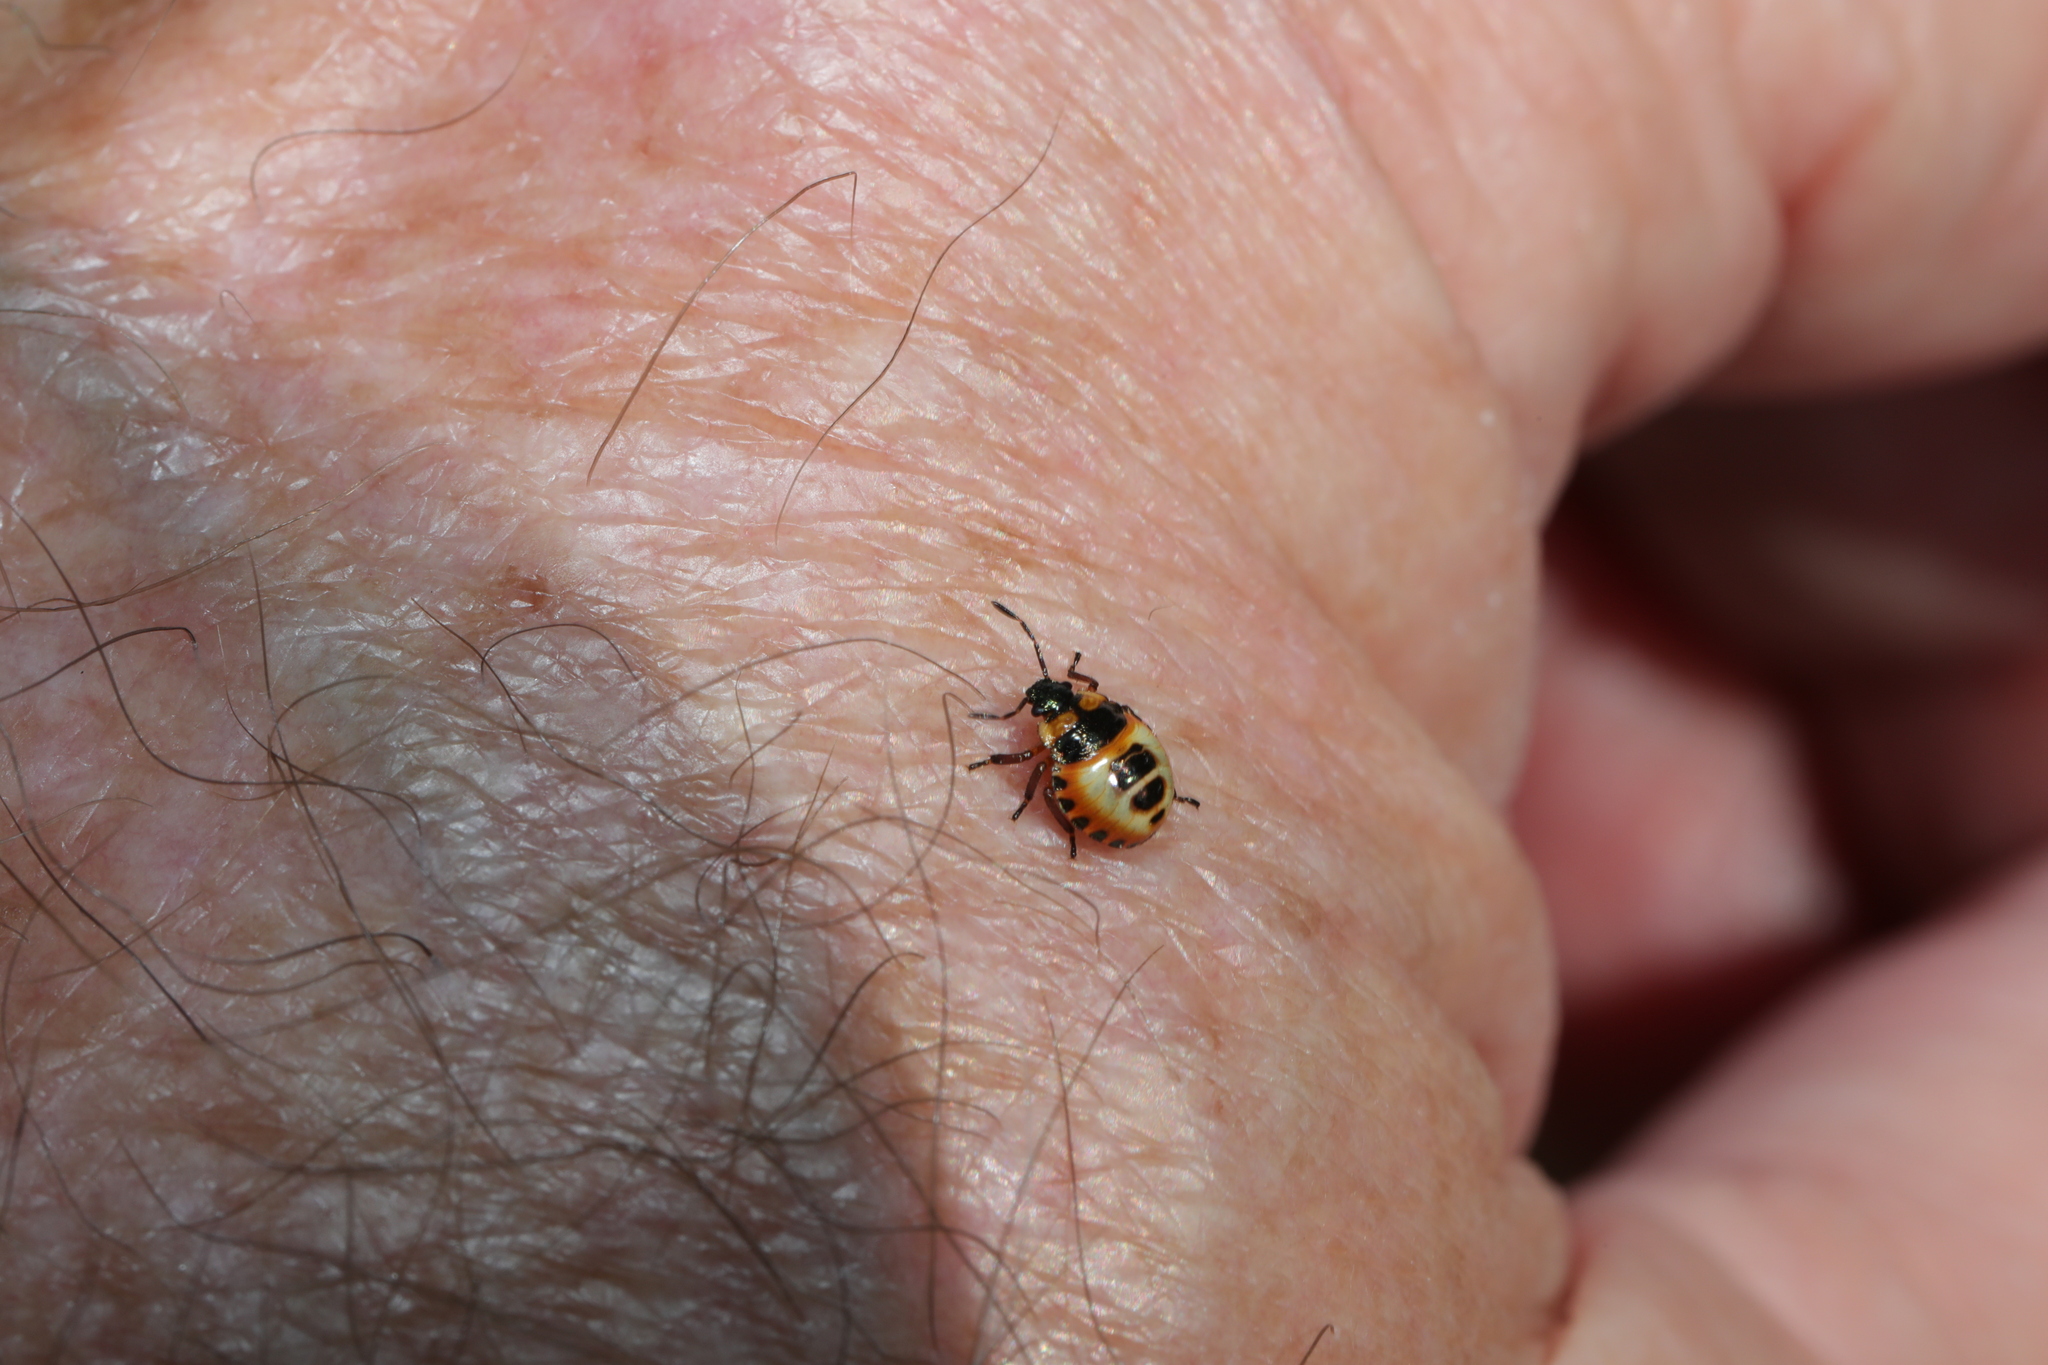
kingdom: Animalia
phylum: Arthropoda
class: Insecta
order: Hemiptera
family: Pentatomidae
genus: Troilus
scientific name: Troilus luridus
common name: Bronze shieldbug
